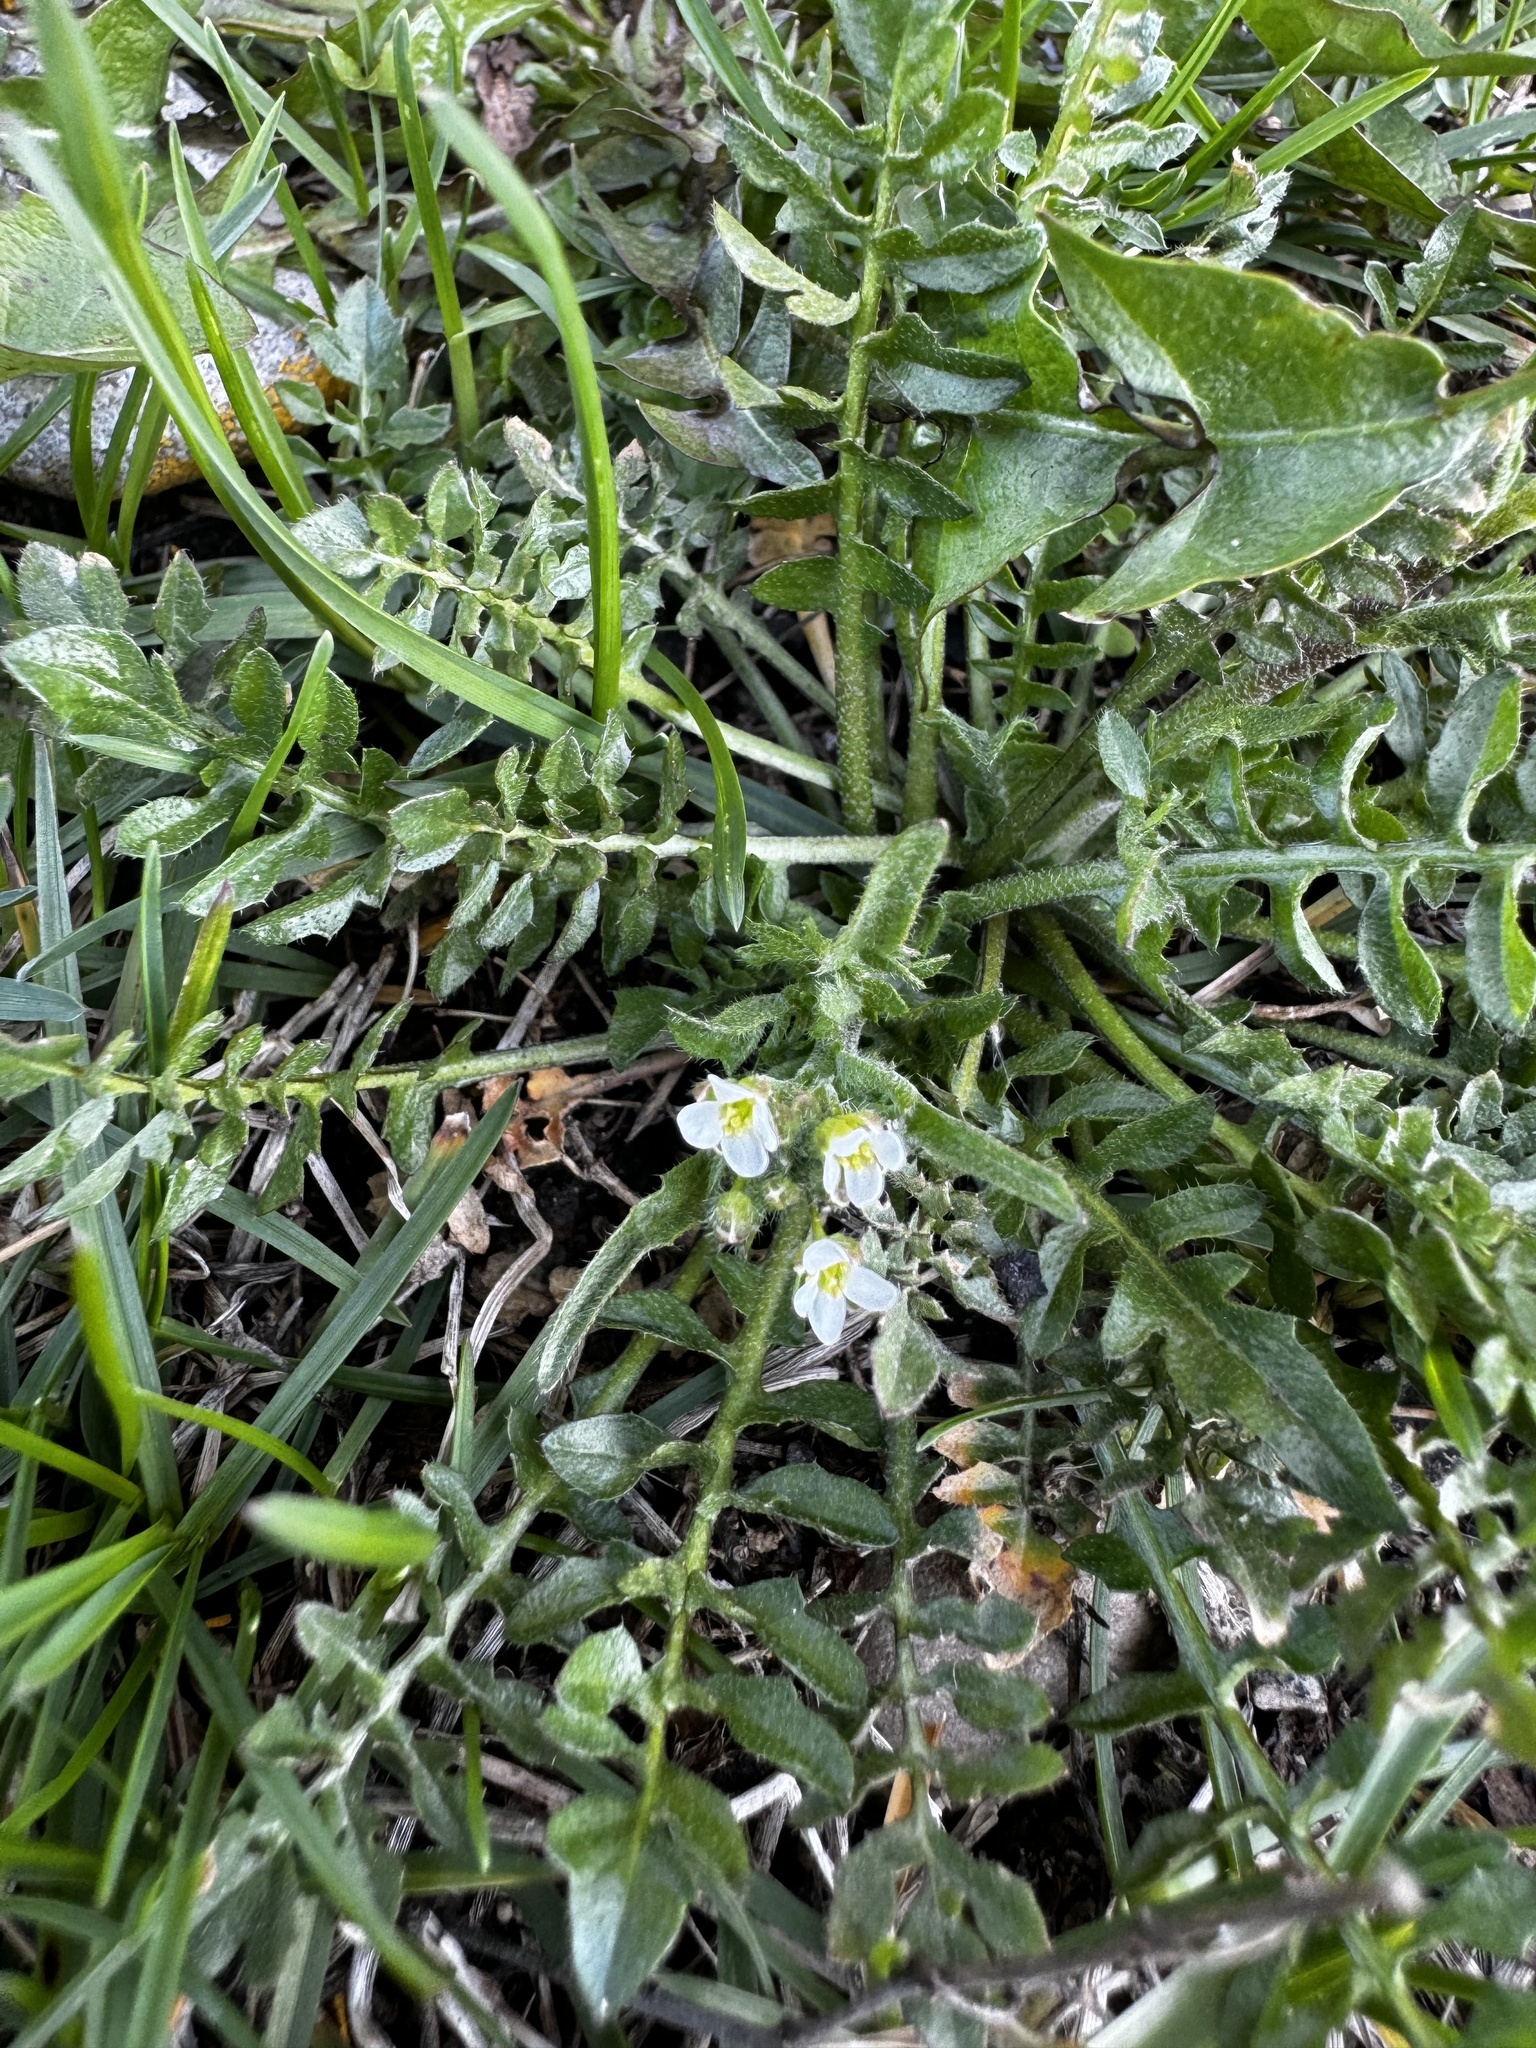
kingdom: Plantae
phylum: Tracheophyta
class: Magnoliopsida
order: Brassicales
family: Brassicaceae
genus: Capsella
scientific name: Capsella bursa-pastoris
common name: Shepherd's purse
